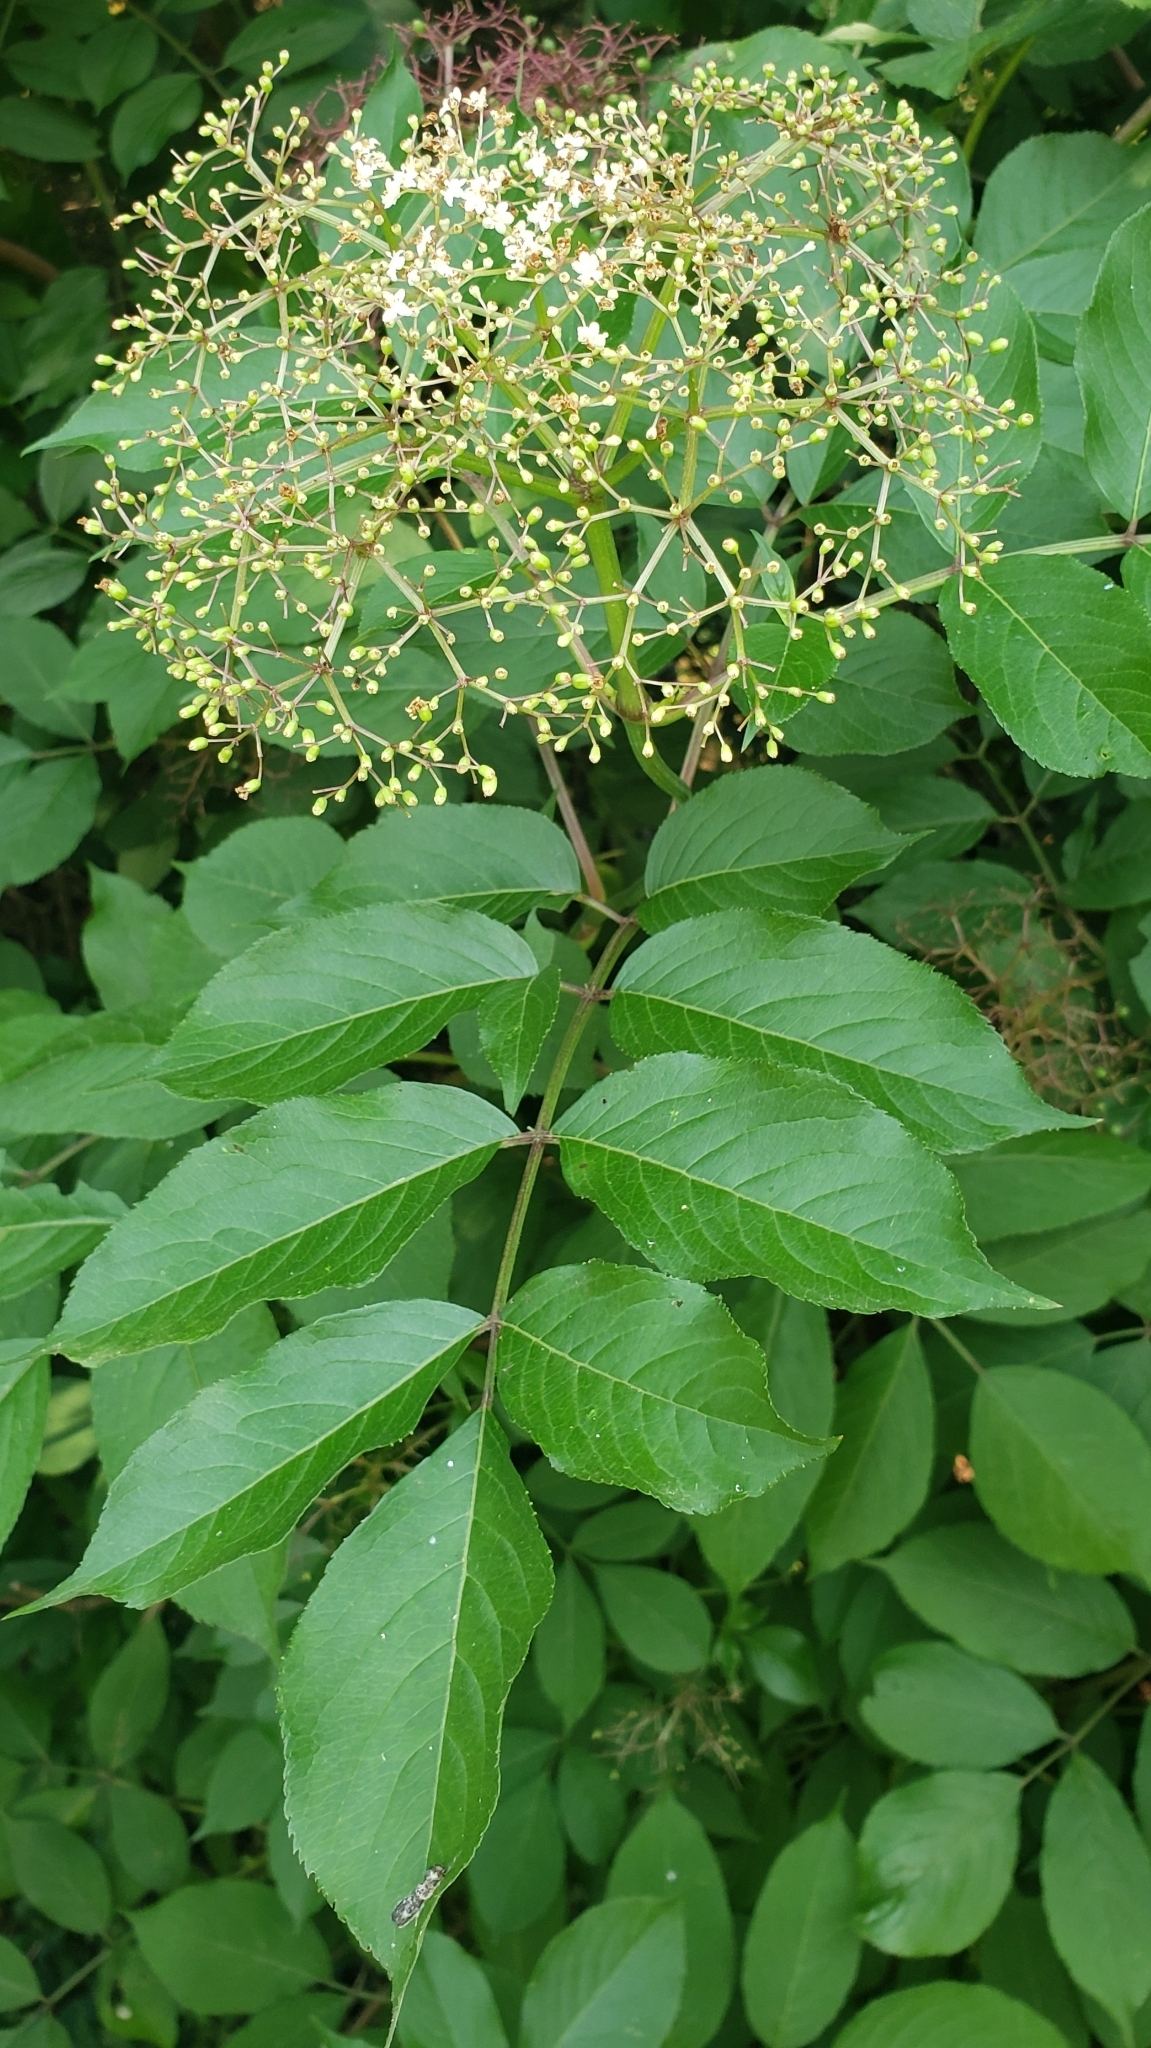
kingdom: Plantae
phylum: Tracheophyta
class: Magnoliopsida
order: Dipsacales
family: Viburnaceae
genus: Sambucus
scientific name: Sambucus canadensis
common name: American elder
